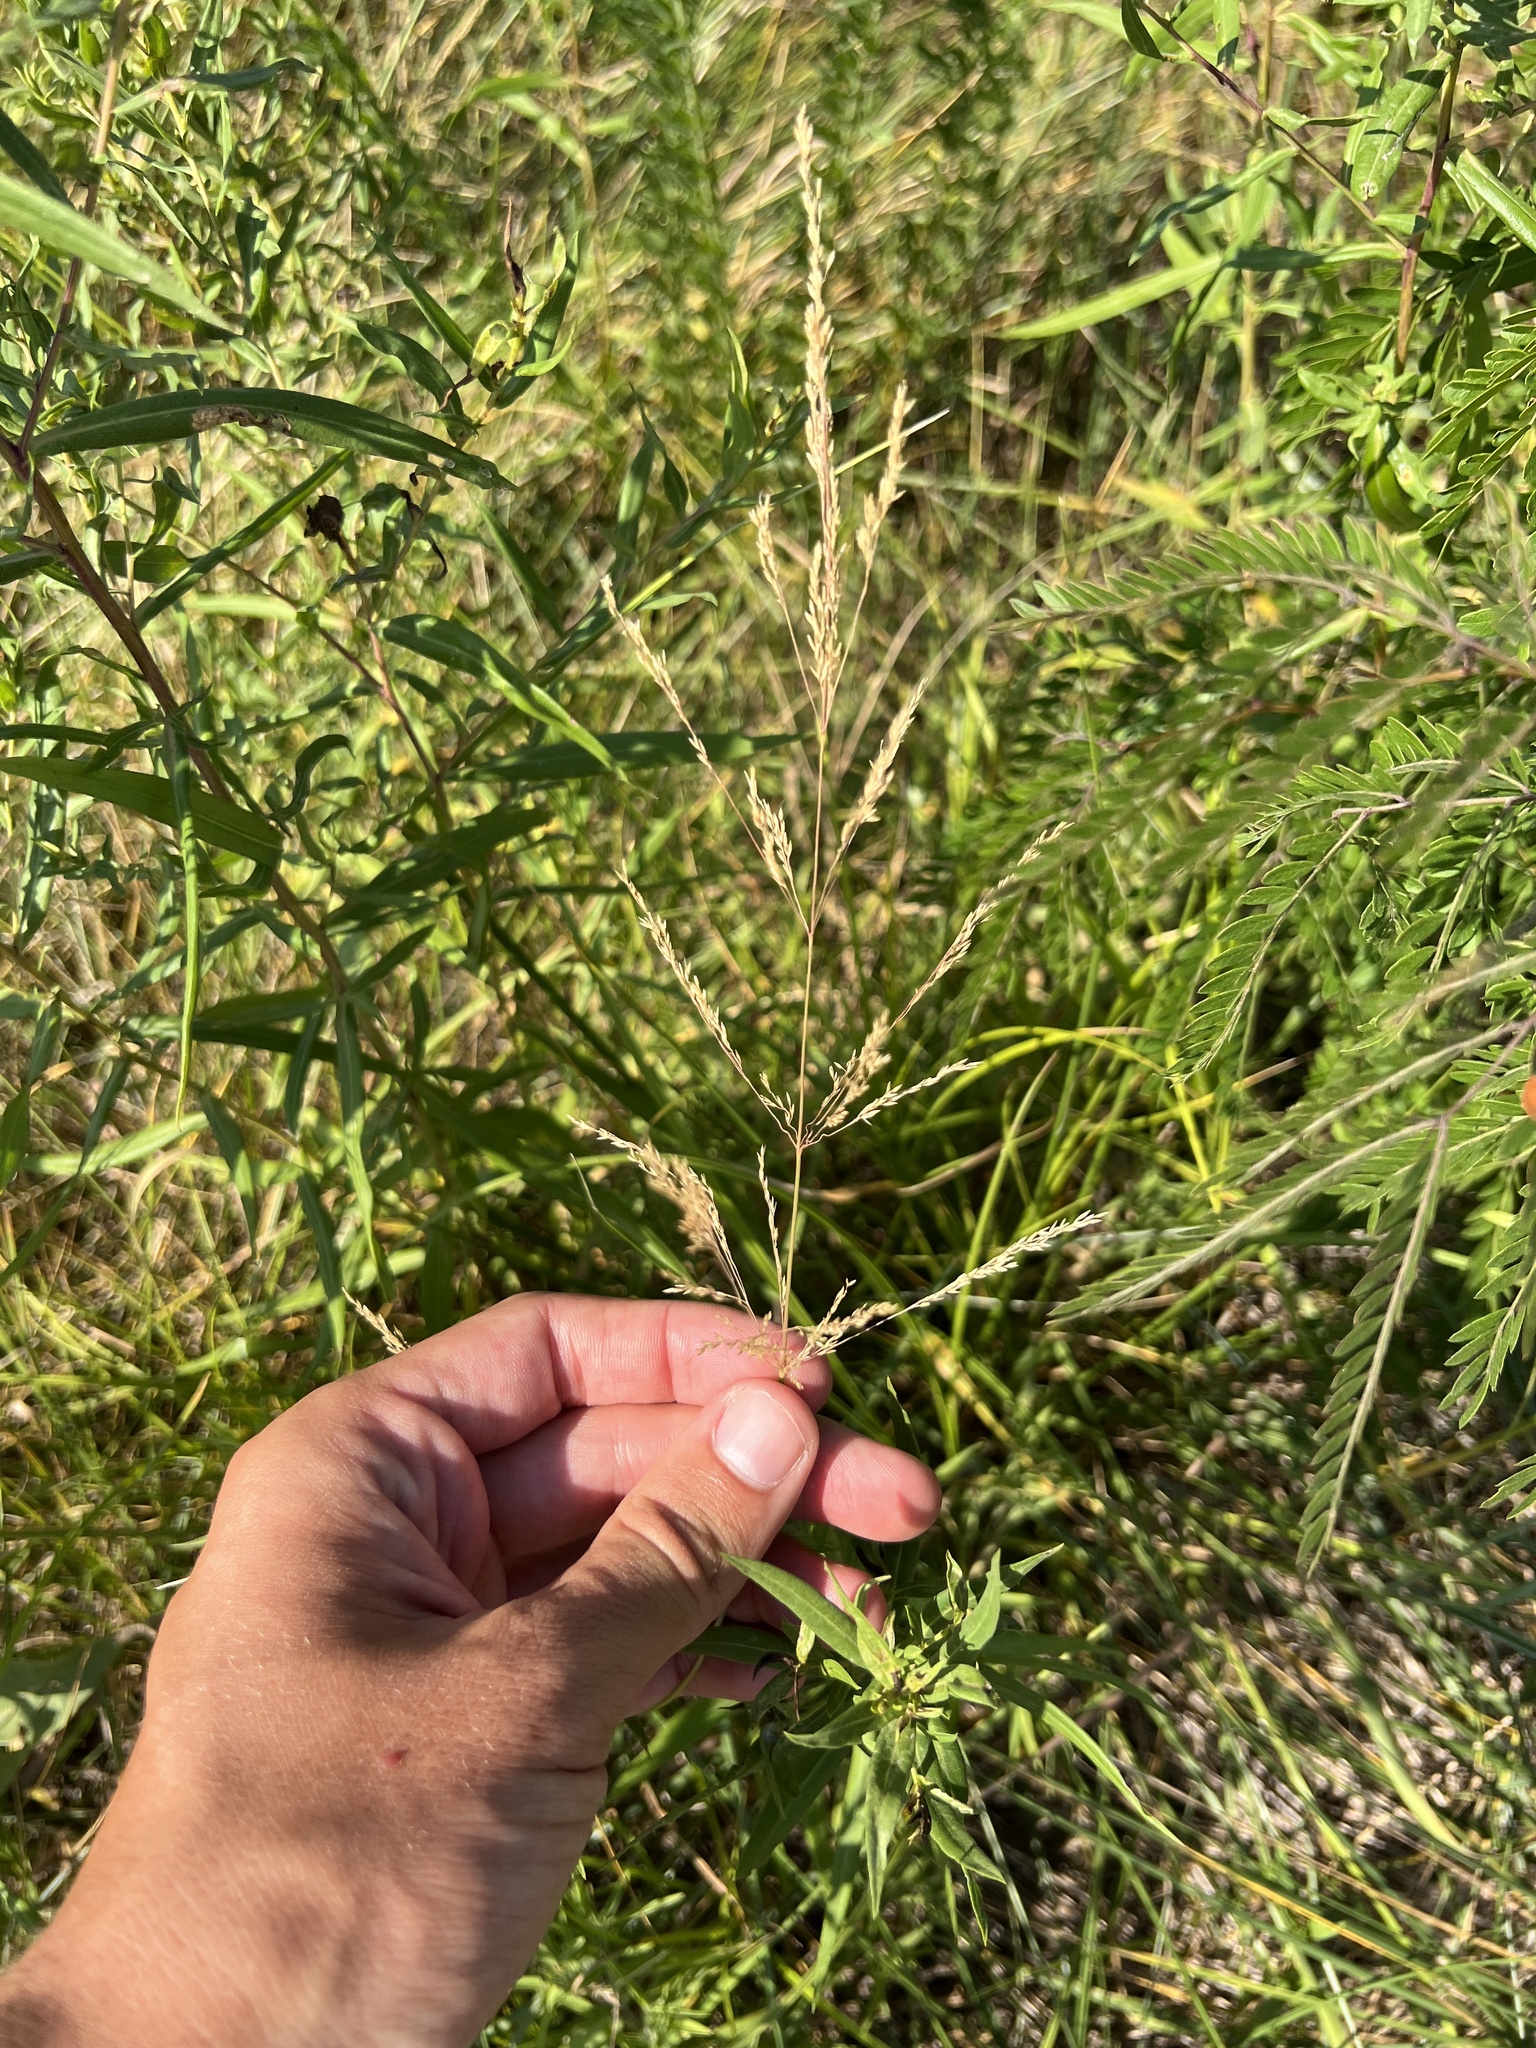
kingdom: Plantae
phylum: Tracheophyta
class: Liliopsida
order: Poales
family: Poaceae
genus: Agrostis
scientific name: Agrostis gigantea
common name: Black bent
